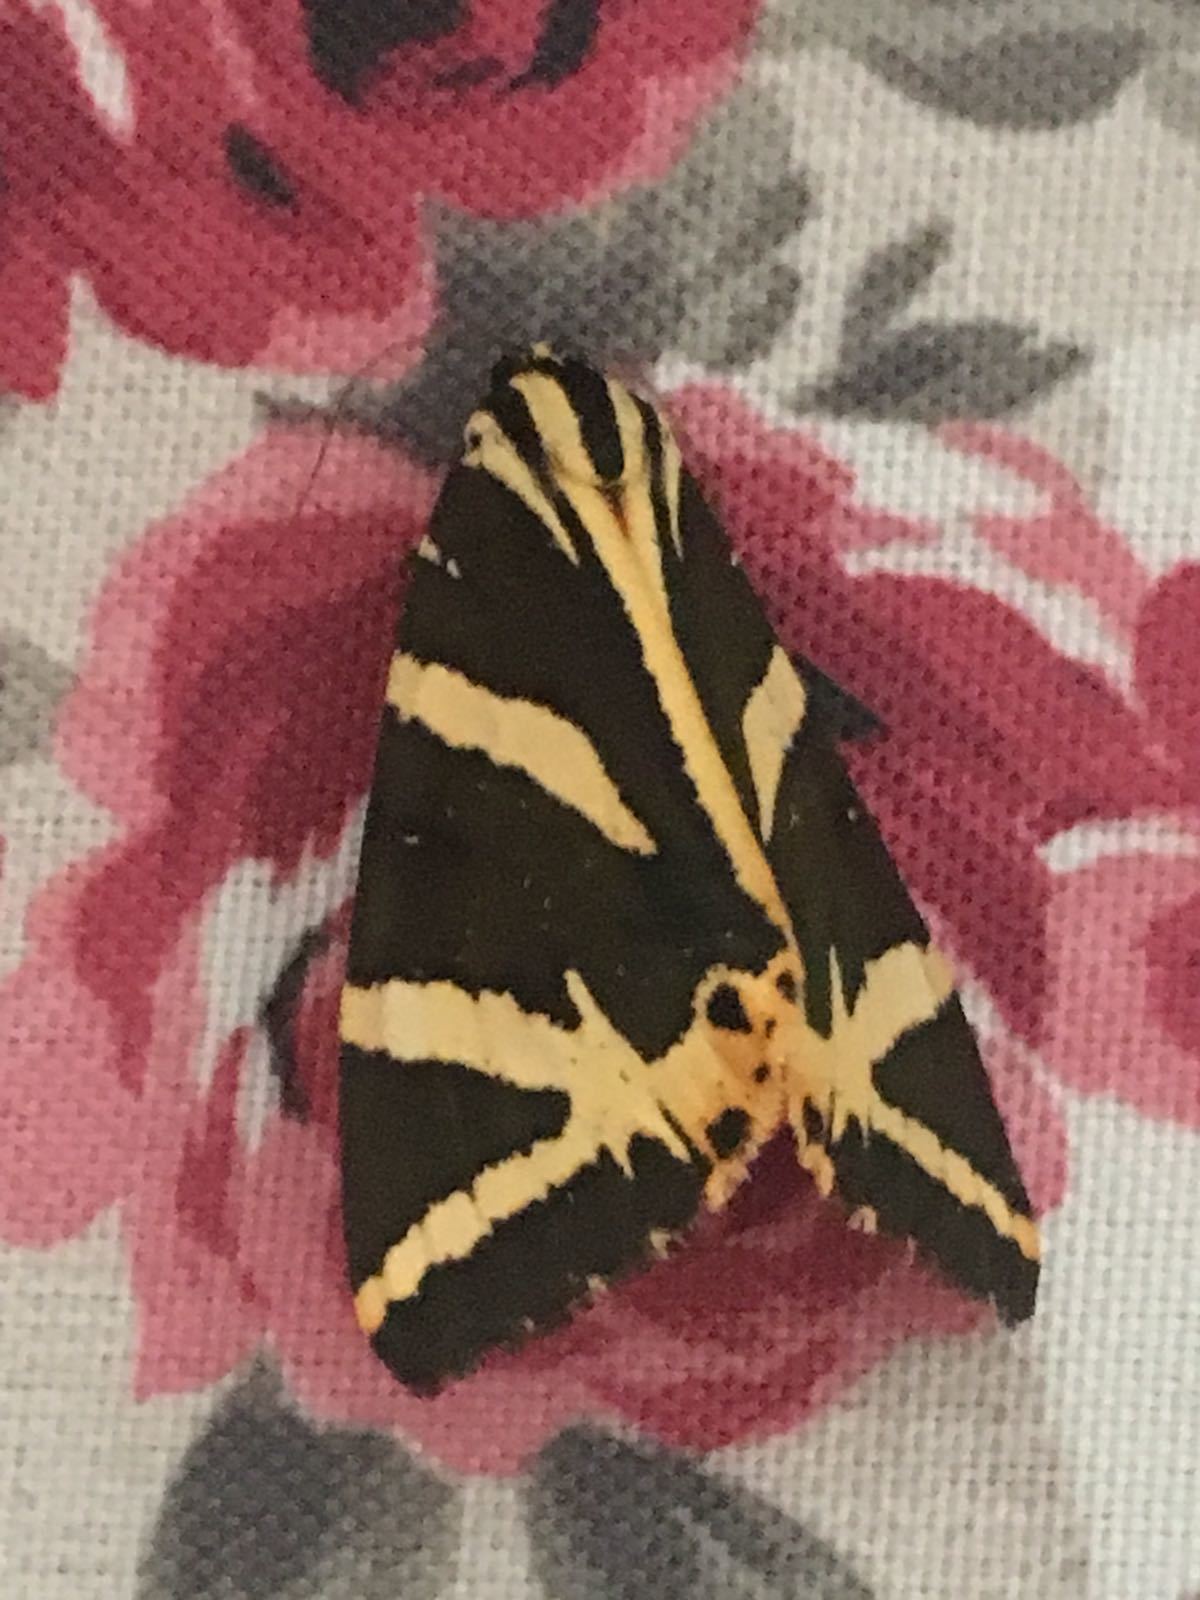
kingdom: Animalia
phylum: Arthropoda
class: Insecta
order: Lepidoptera
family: Erebidae
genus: Euplagia
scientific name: Euplagia quadripunctaria
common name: Jersey tiger
